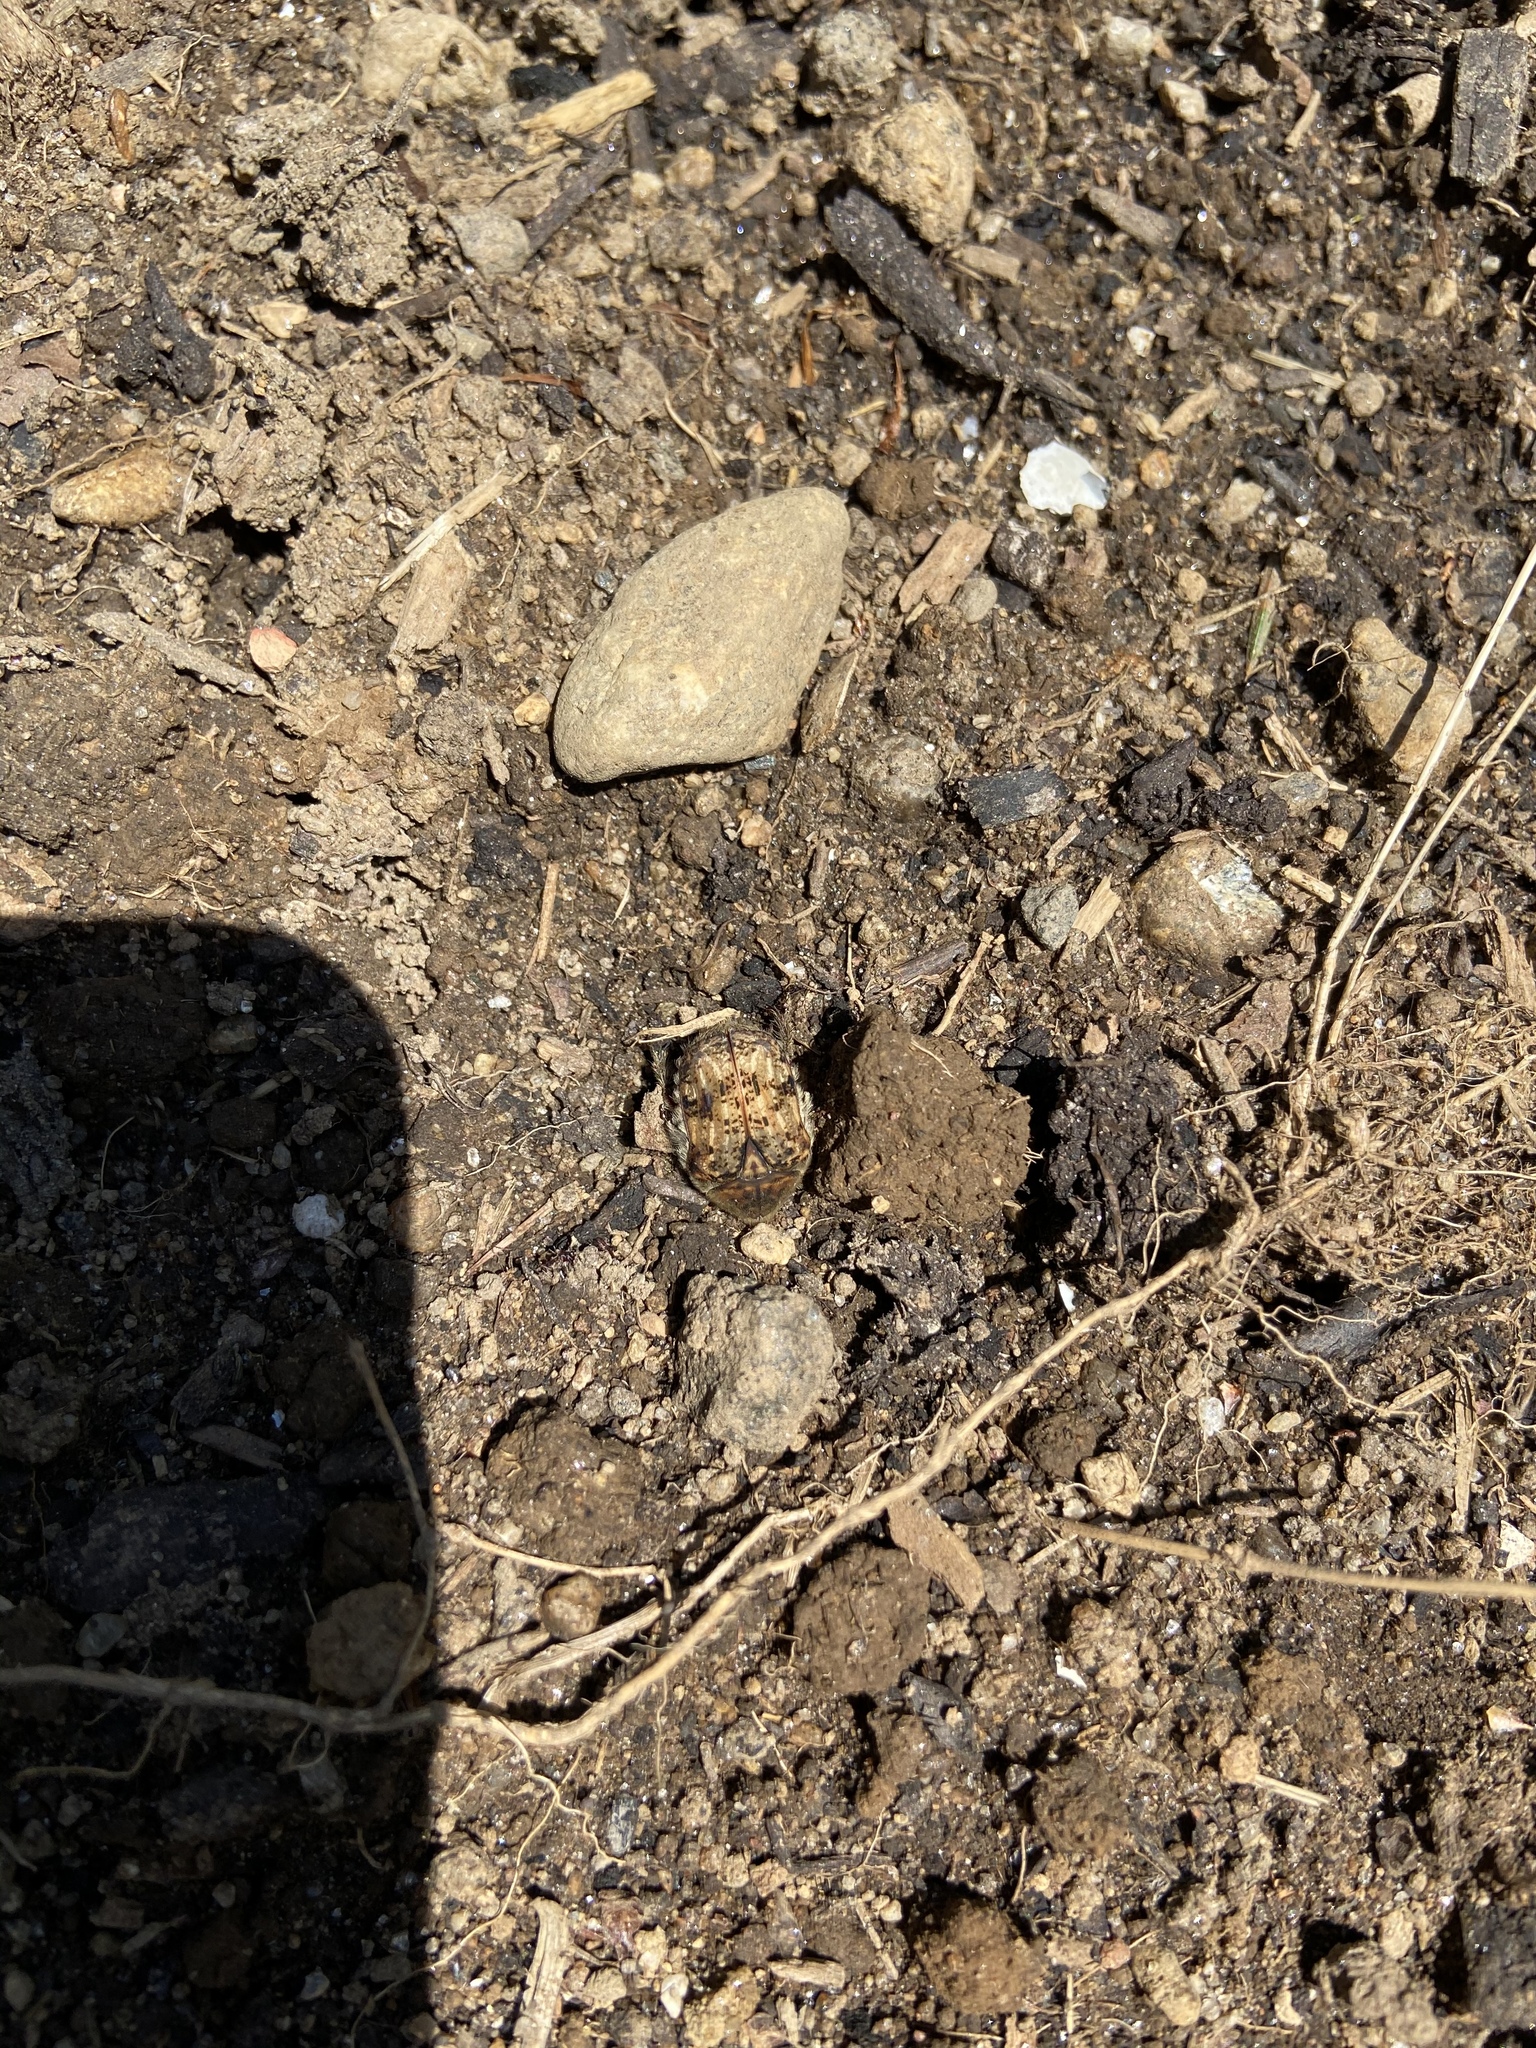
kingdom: Animalia
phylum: Arthropoda
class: Insecta
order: Coleoptera
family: Scarabaeidae
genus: Euphoria
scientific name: Euphoria inda
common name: Bumble flower beetle
